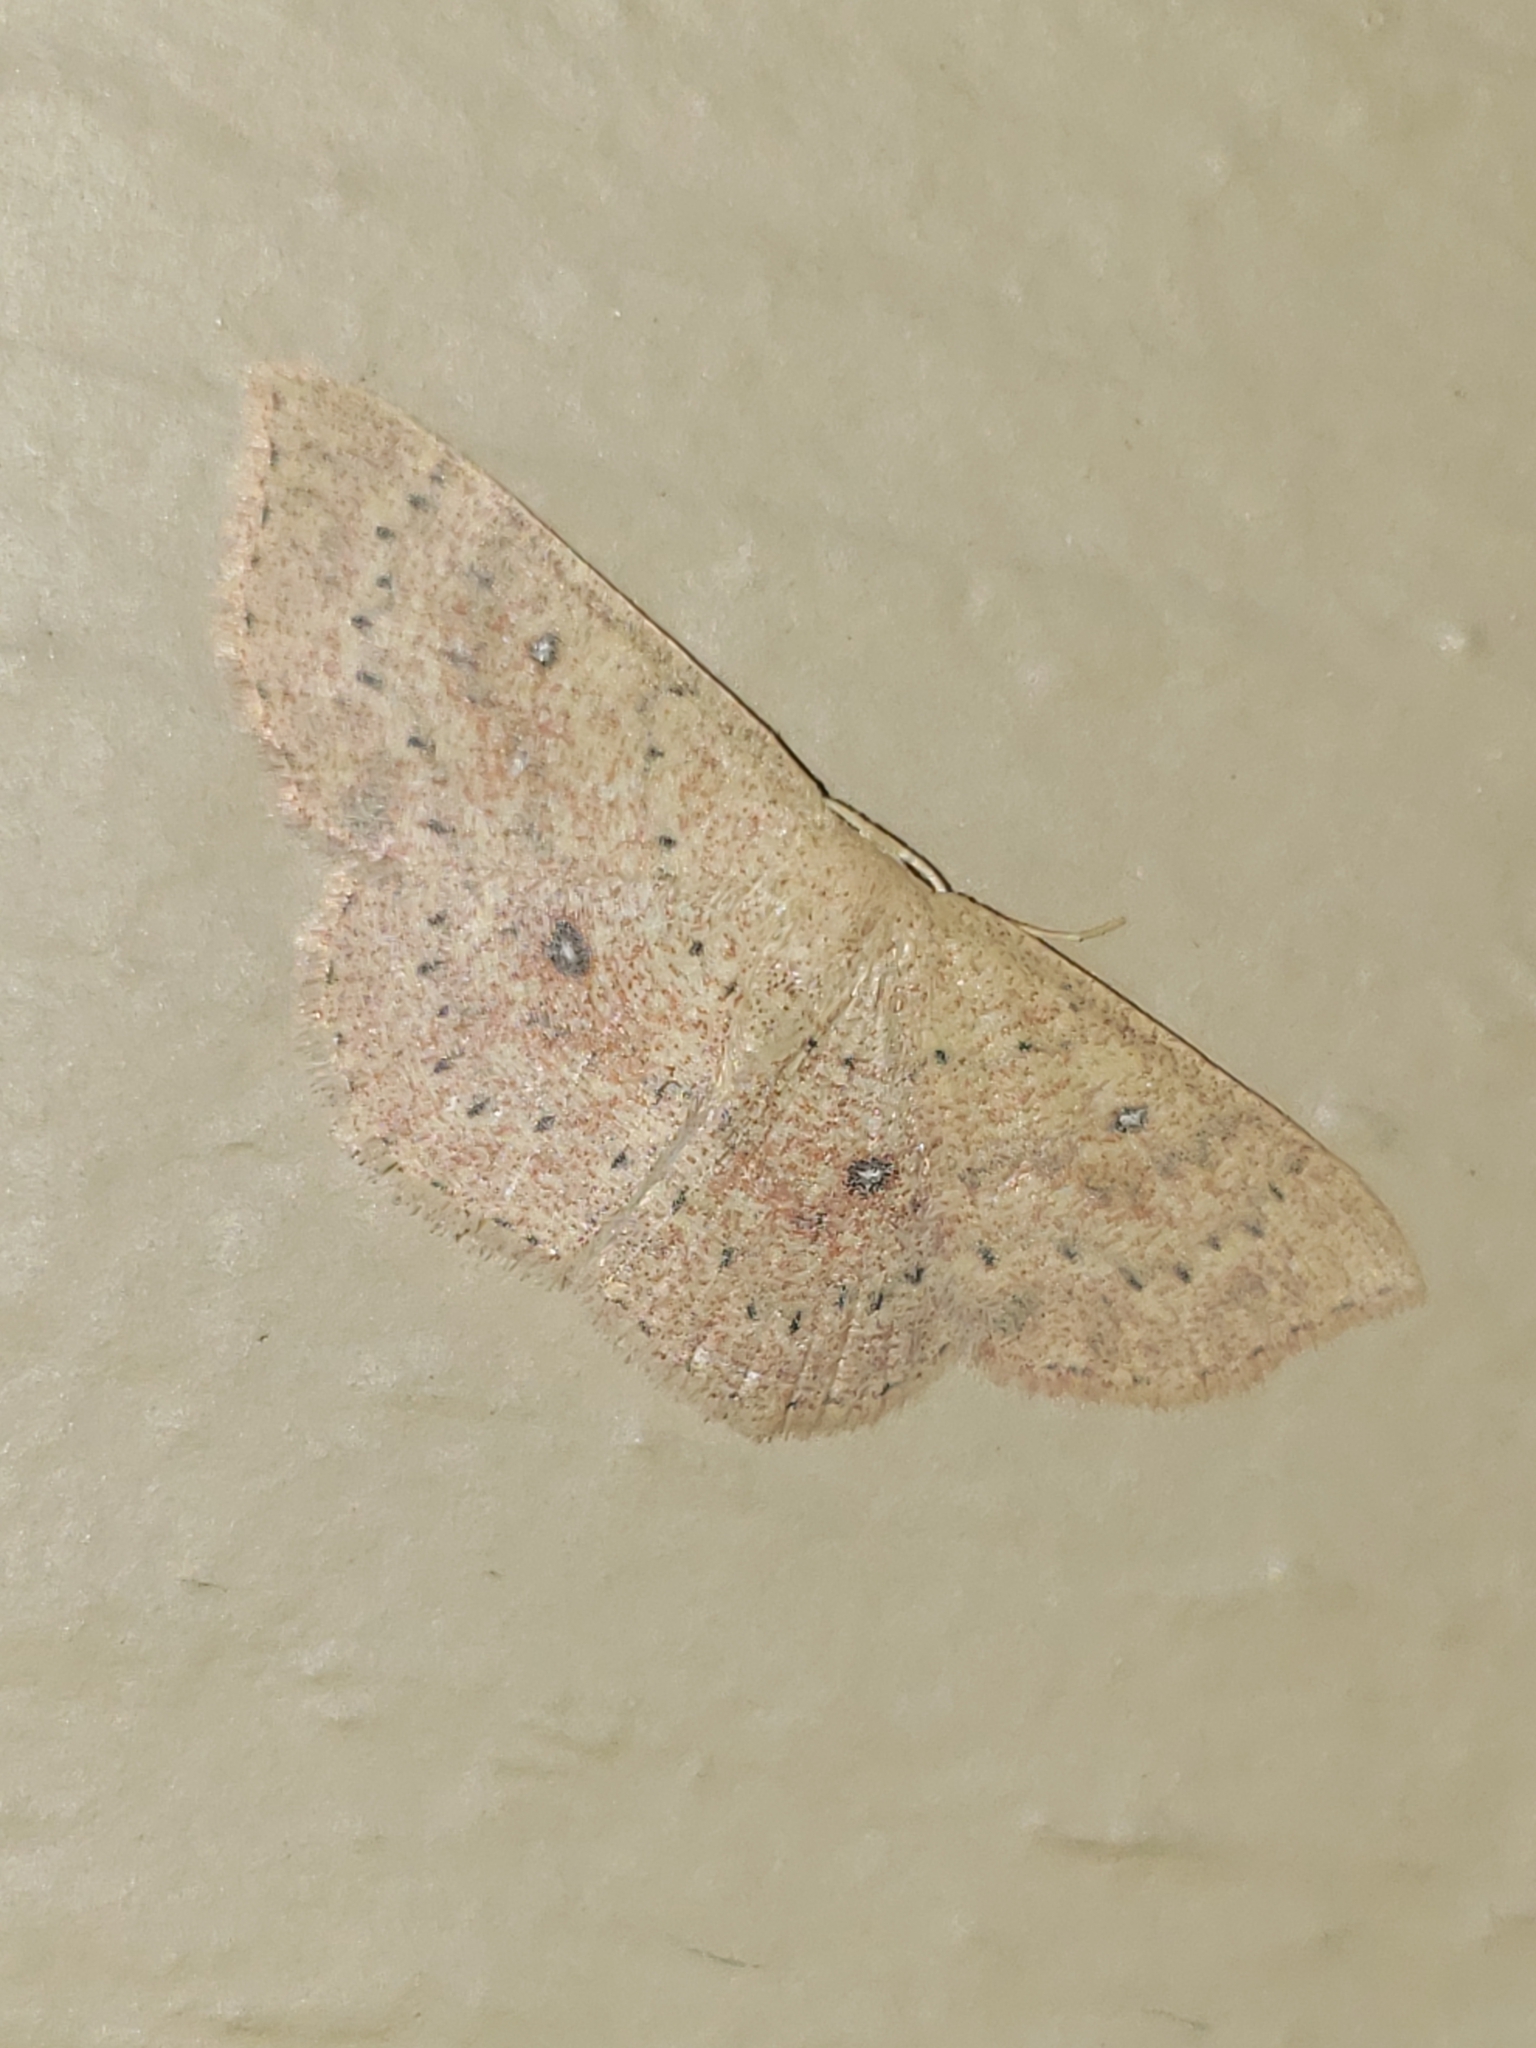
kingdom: Animalia
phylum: Arthropoda
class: Insecta
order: Lepidoptera
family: Geometridae
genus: Cyclophora
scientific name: Cyclophora packardi
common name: Packard's wave
